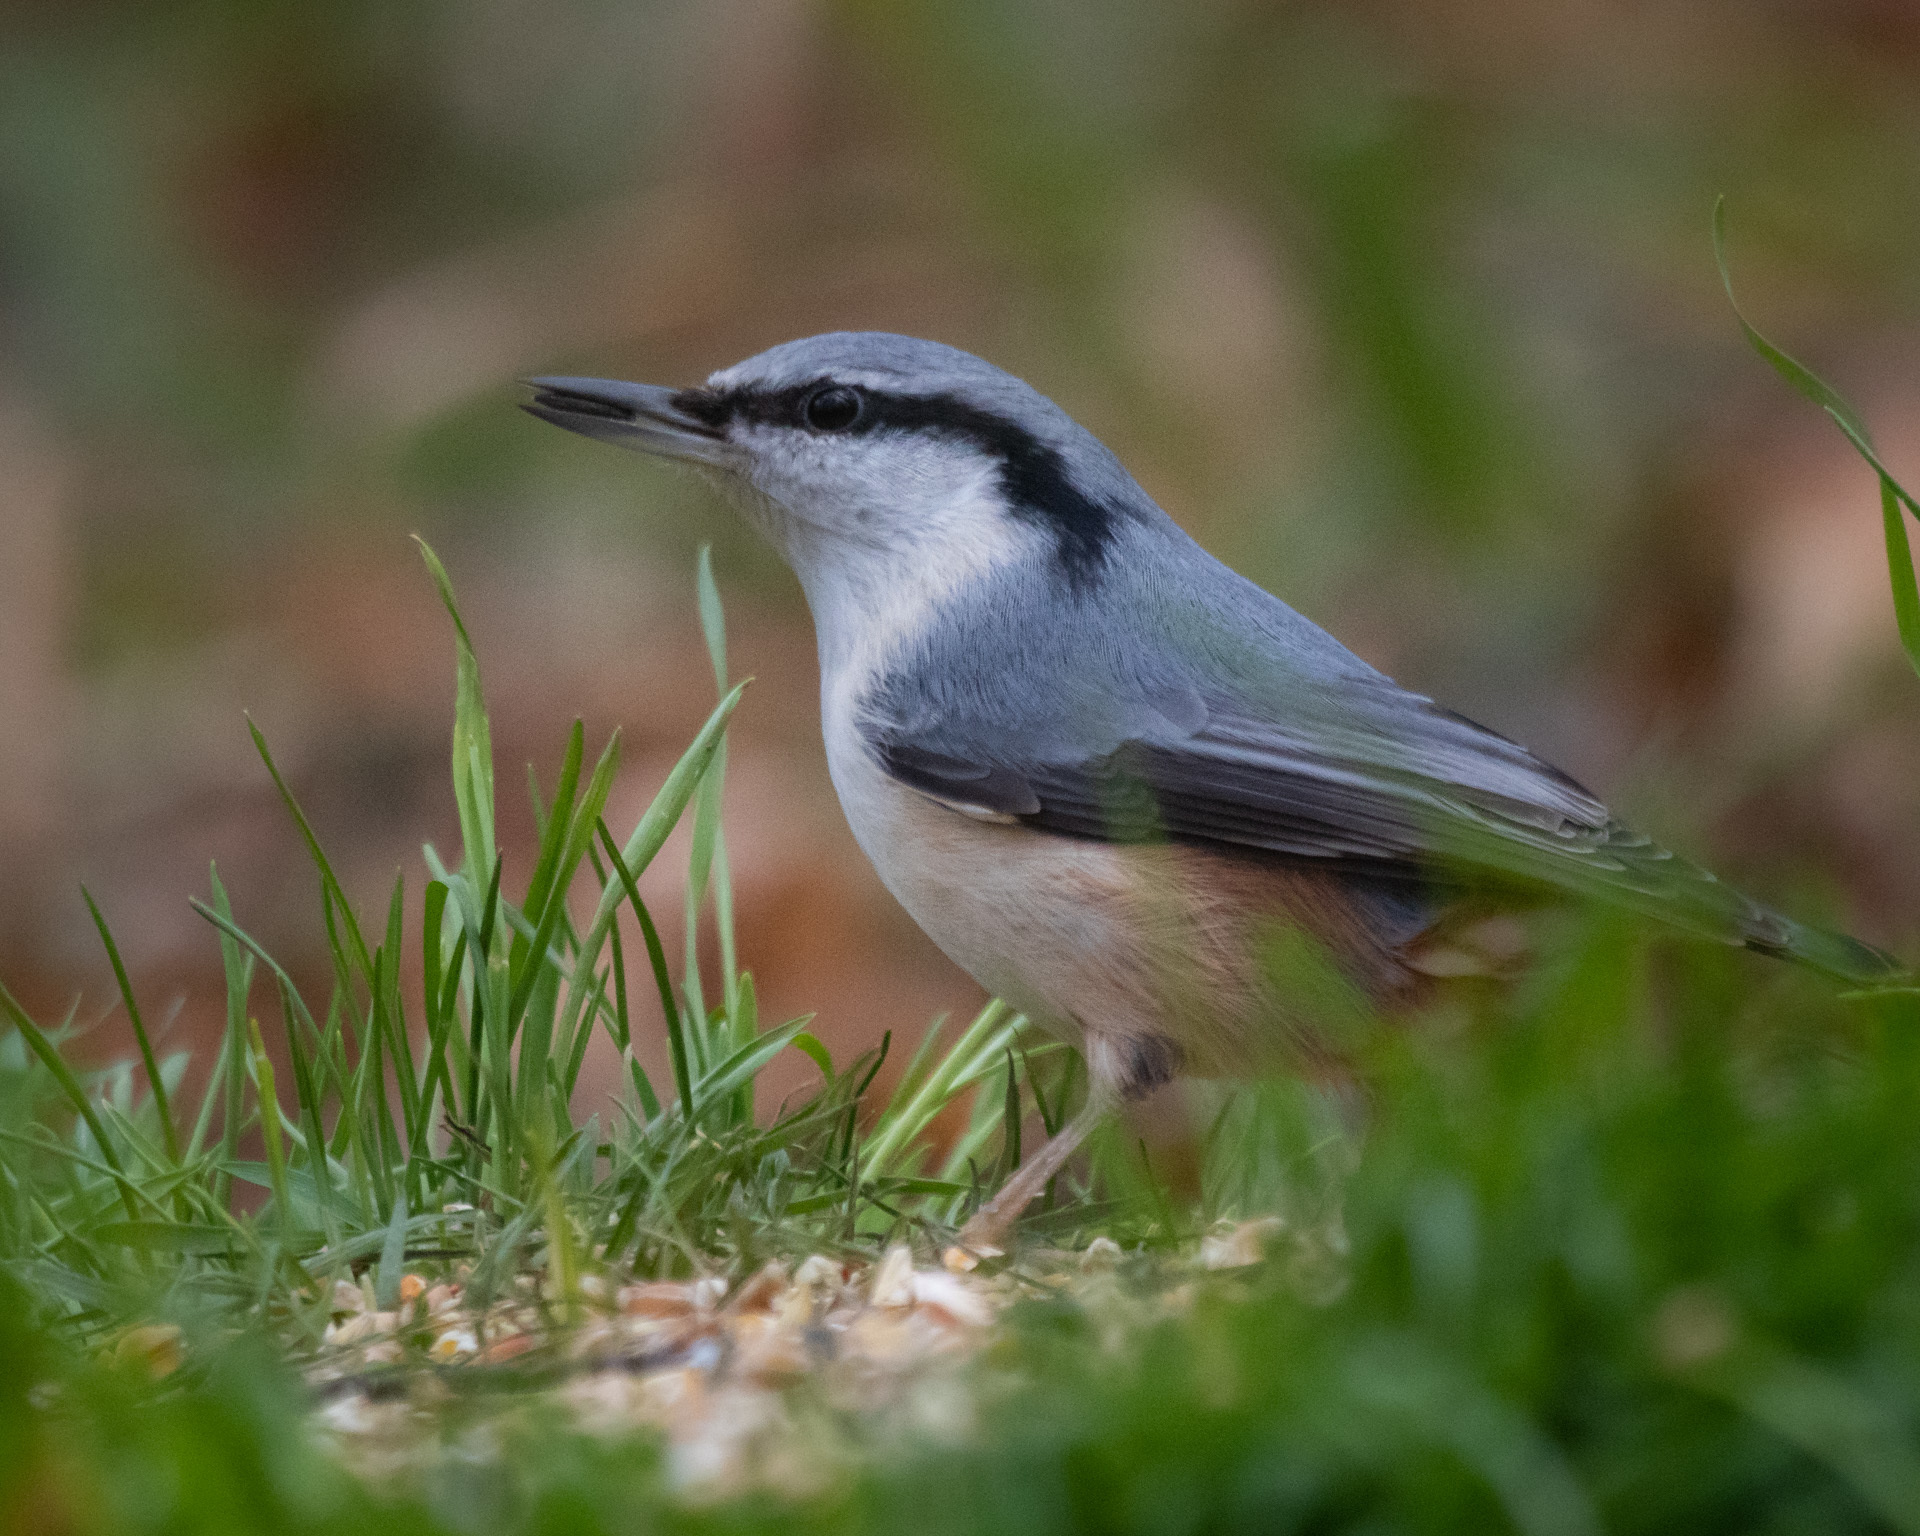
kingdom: Animalia
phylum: Chordata
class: Aves
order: Passeriformes
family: Sittidae
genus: Sitta
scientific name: Sitta europaea
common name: Eurasian nuthatch
